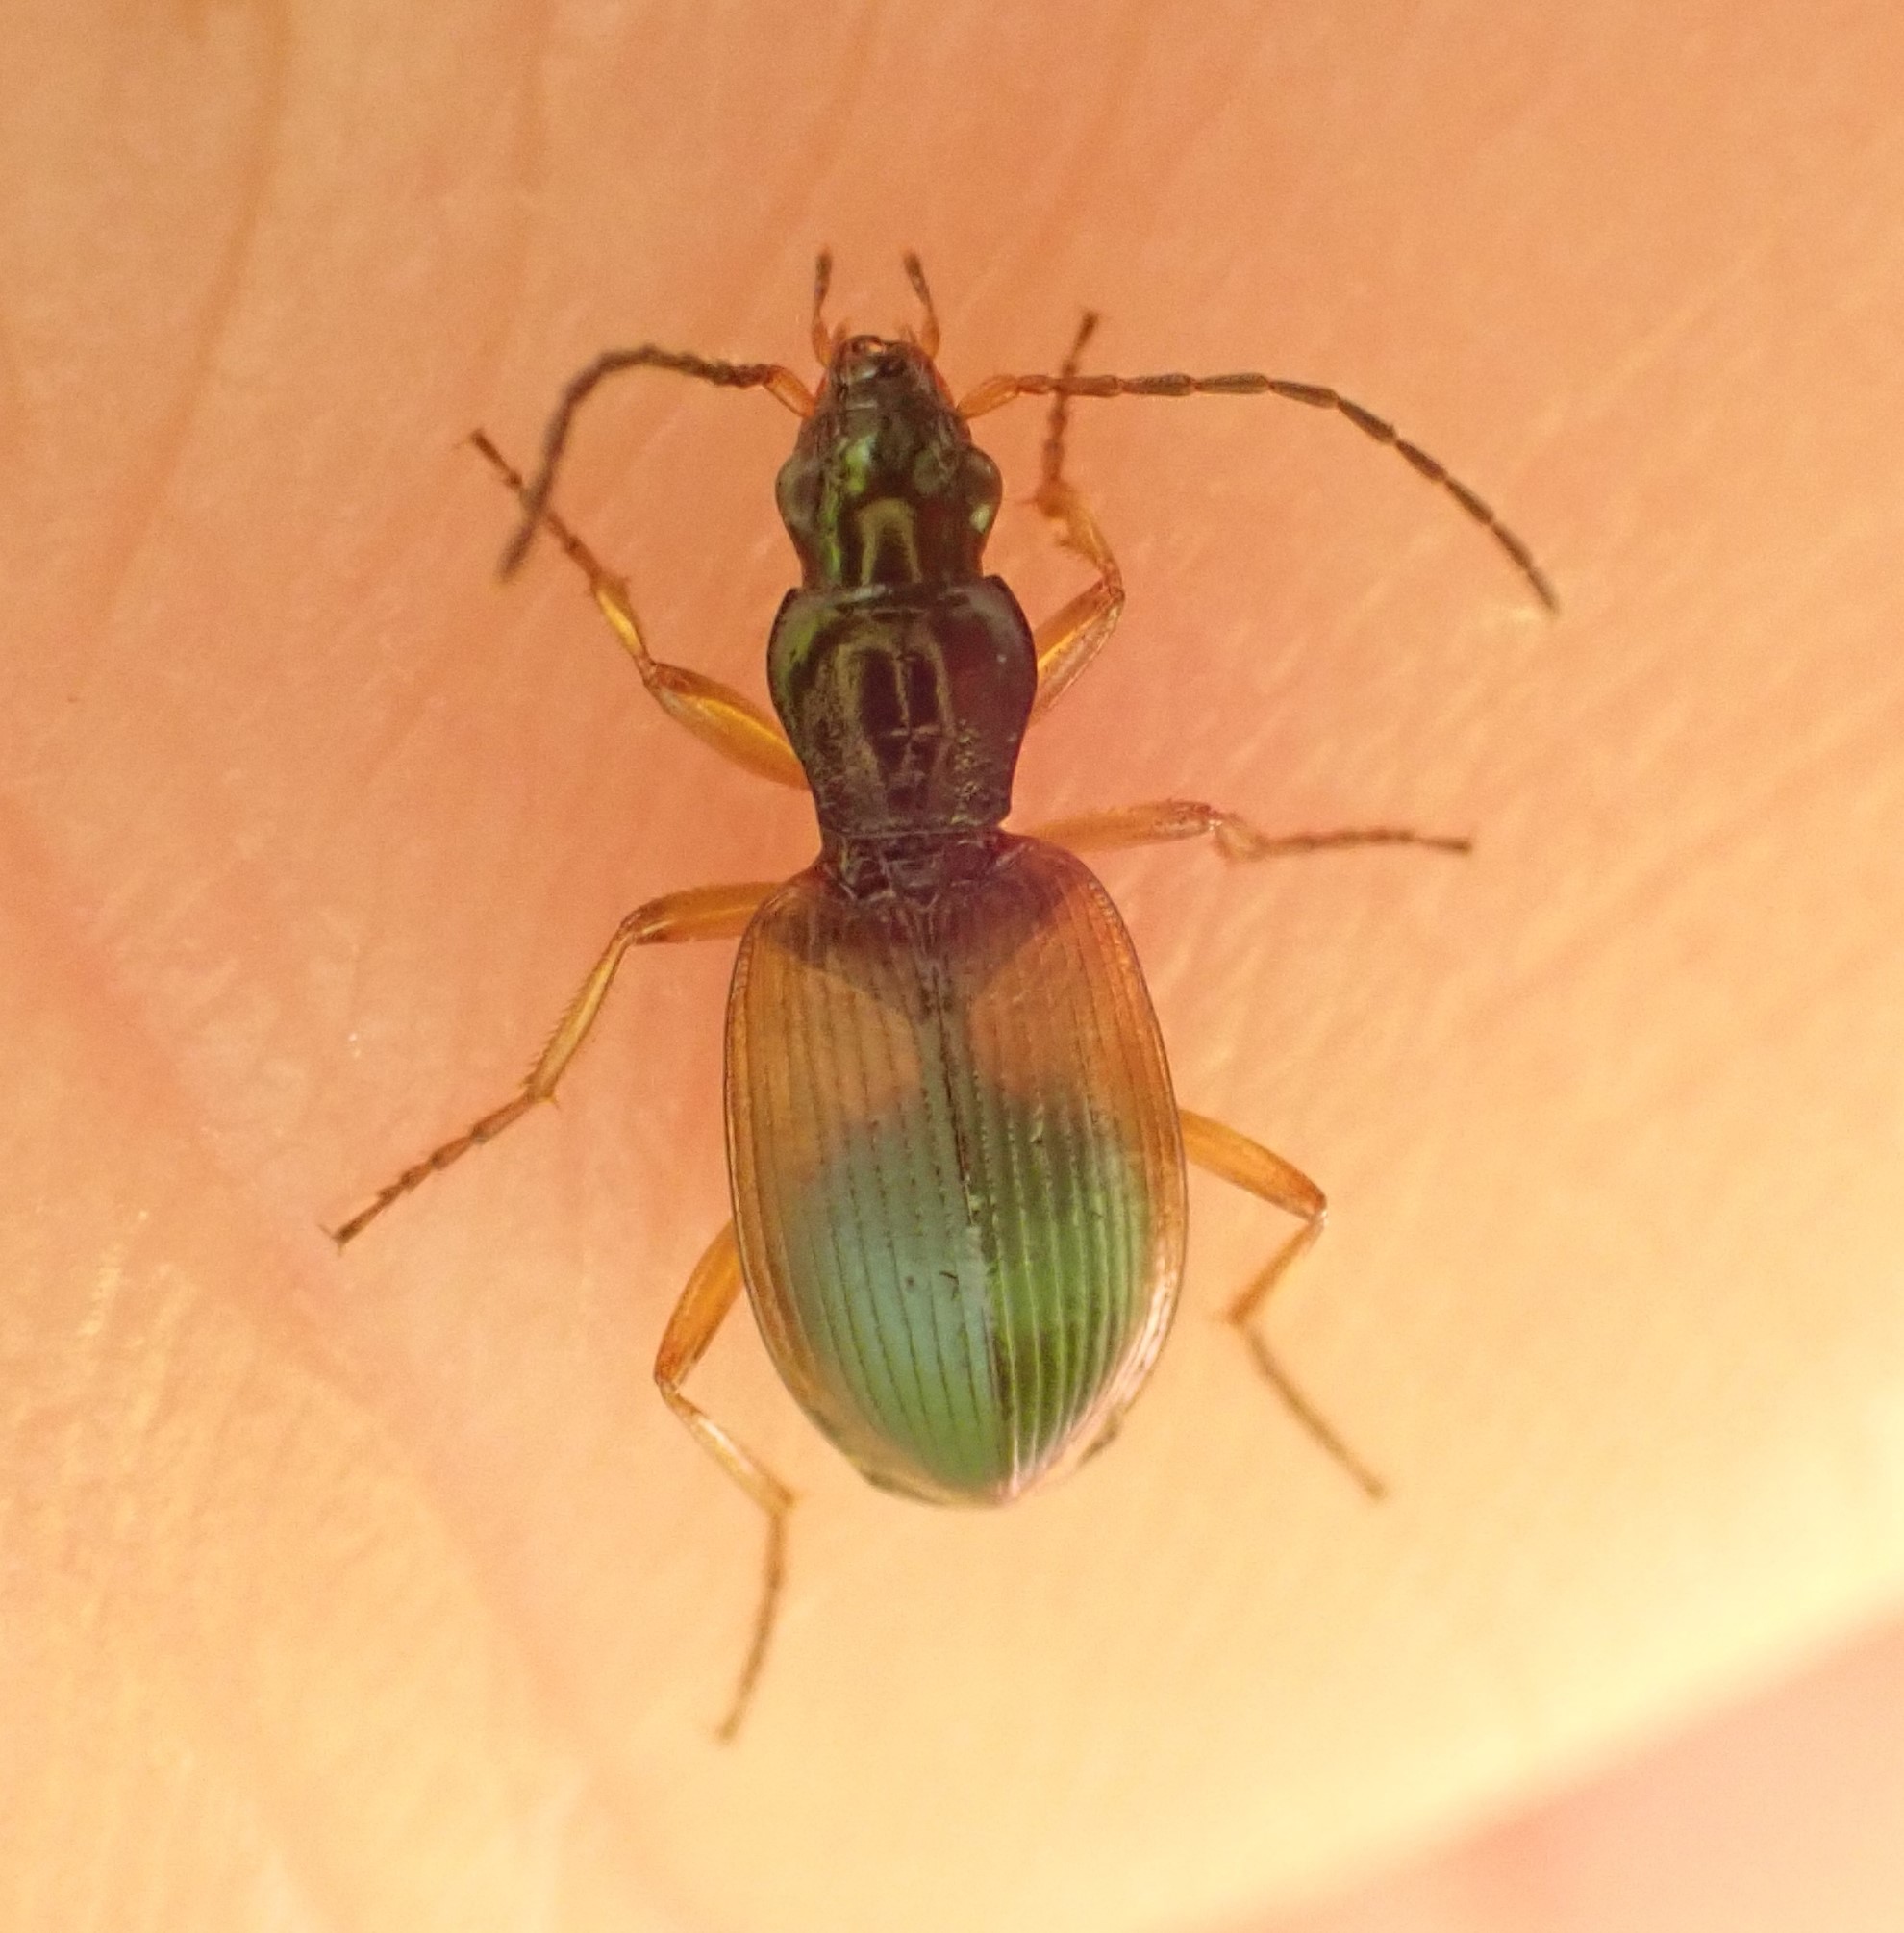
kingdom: Animalia
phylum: Arthropoda
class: Insecta
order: Coleoptera
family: Carabidae
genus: Anchomenus
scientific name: Anchomenus dorsalis
